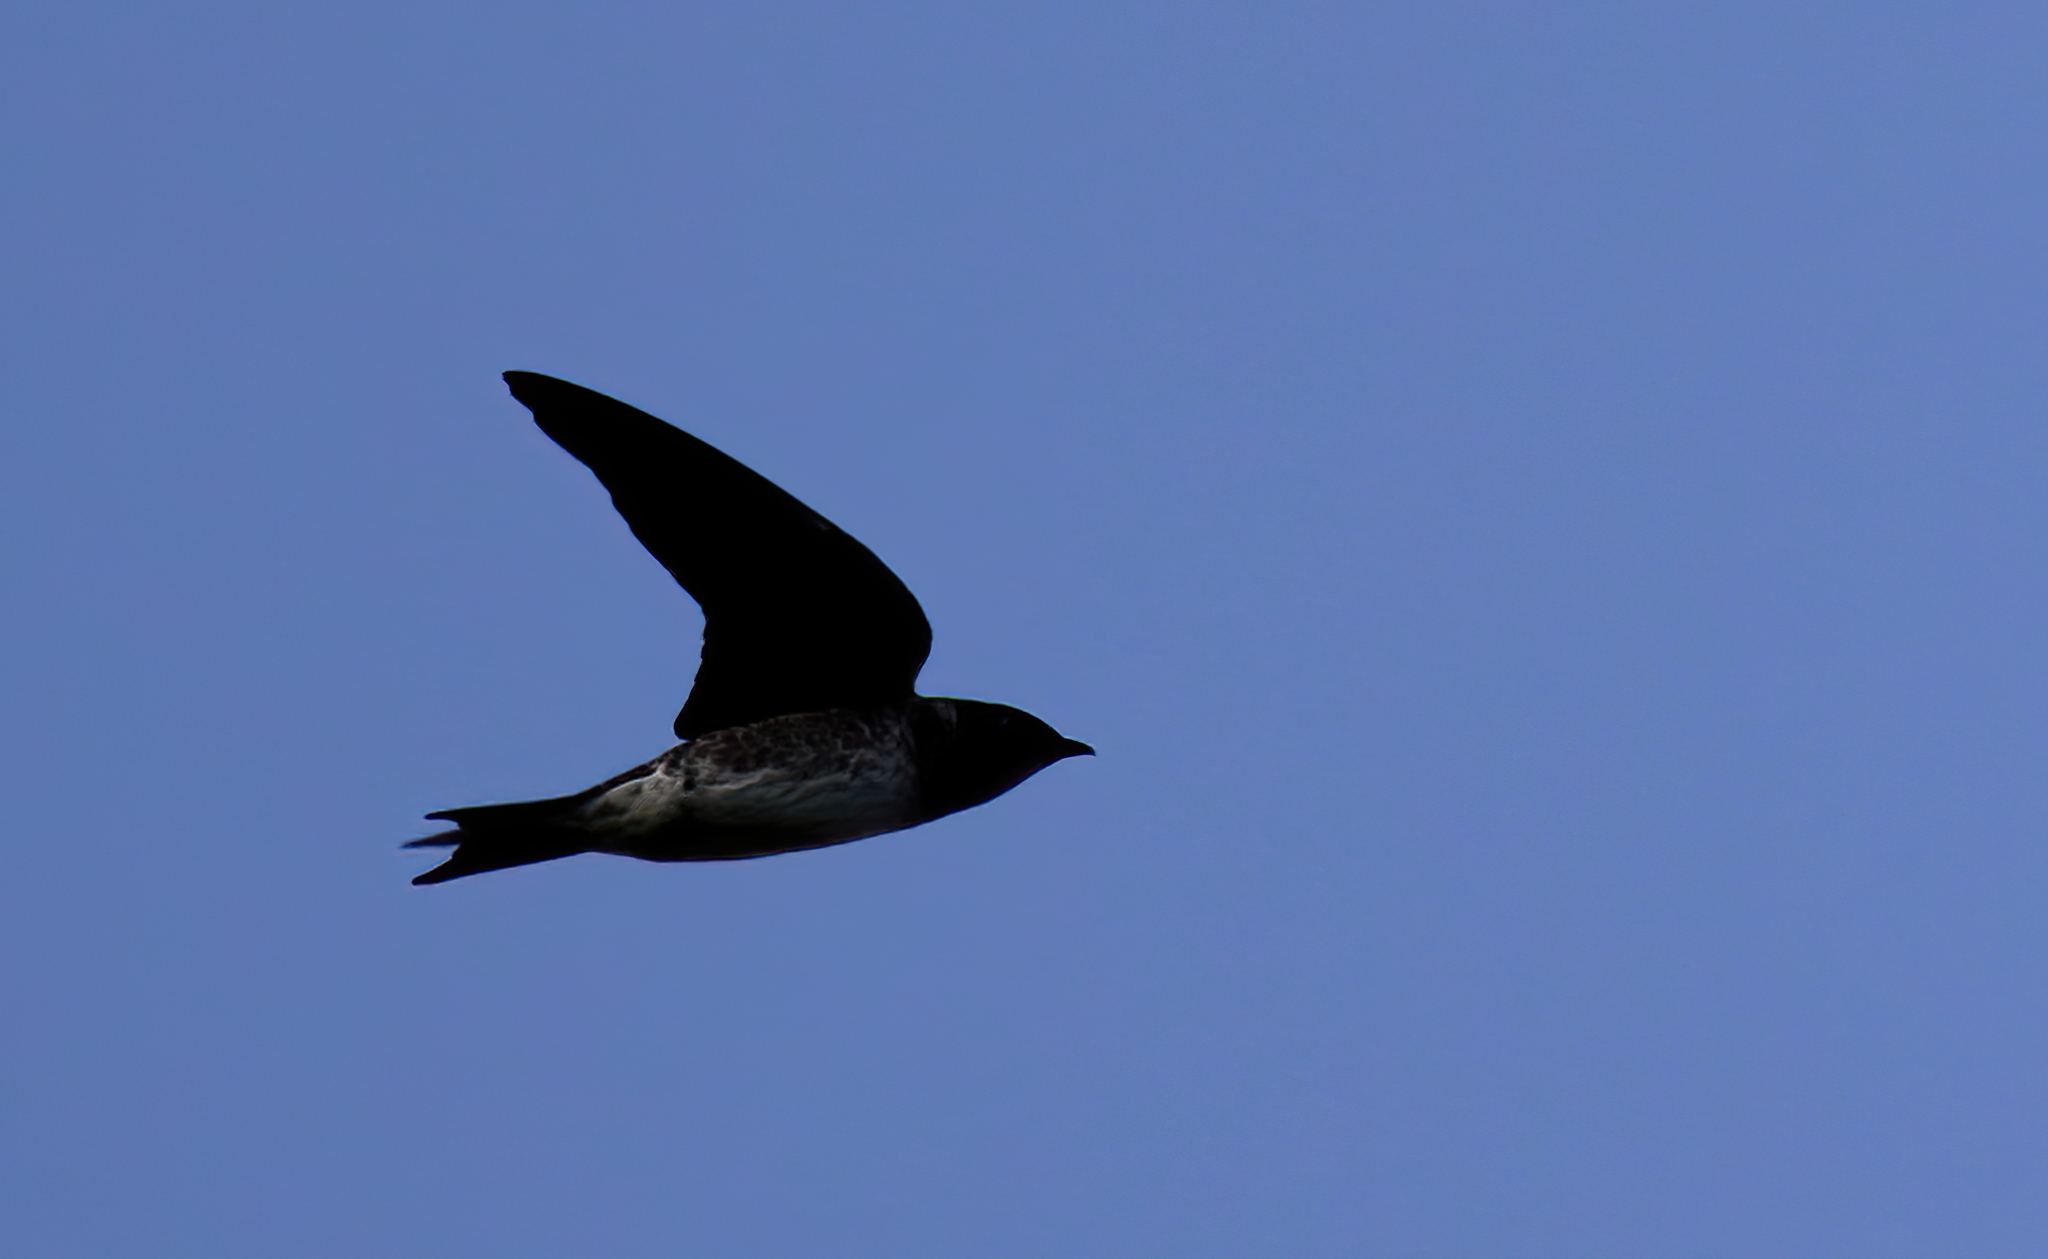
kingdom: Animalia
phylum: Chordata
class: Aves
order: Passeriformes
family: Hirundinidae
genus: Progne
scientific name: Progne subis
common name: Purple martin
